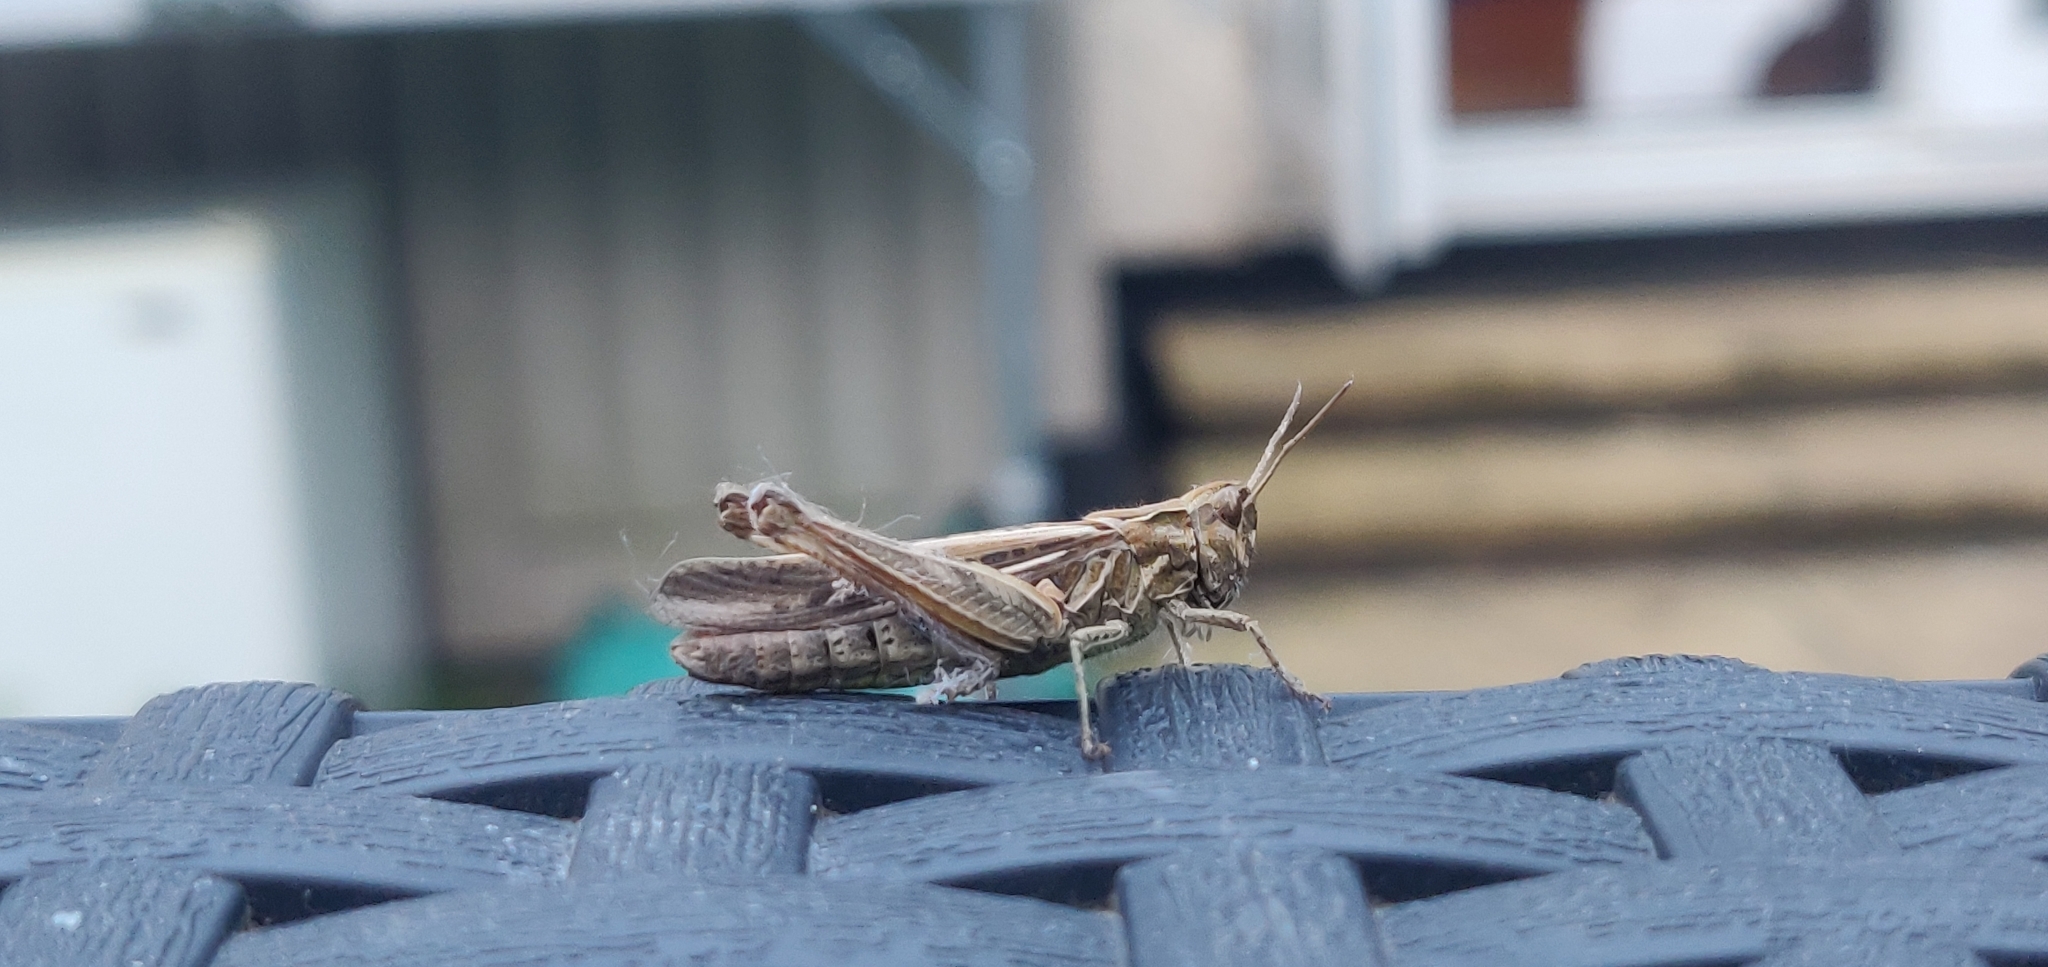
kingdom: Animalia
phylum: Arthropoda
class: Insecta
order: Orthoptera
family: Acrididae
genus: Chorthippus
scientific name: Chorthippus brunneus
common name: Field grasshopper
